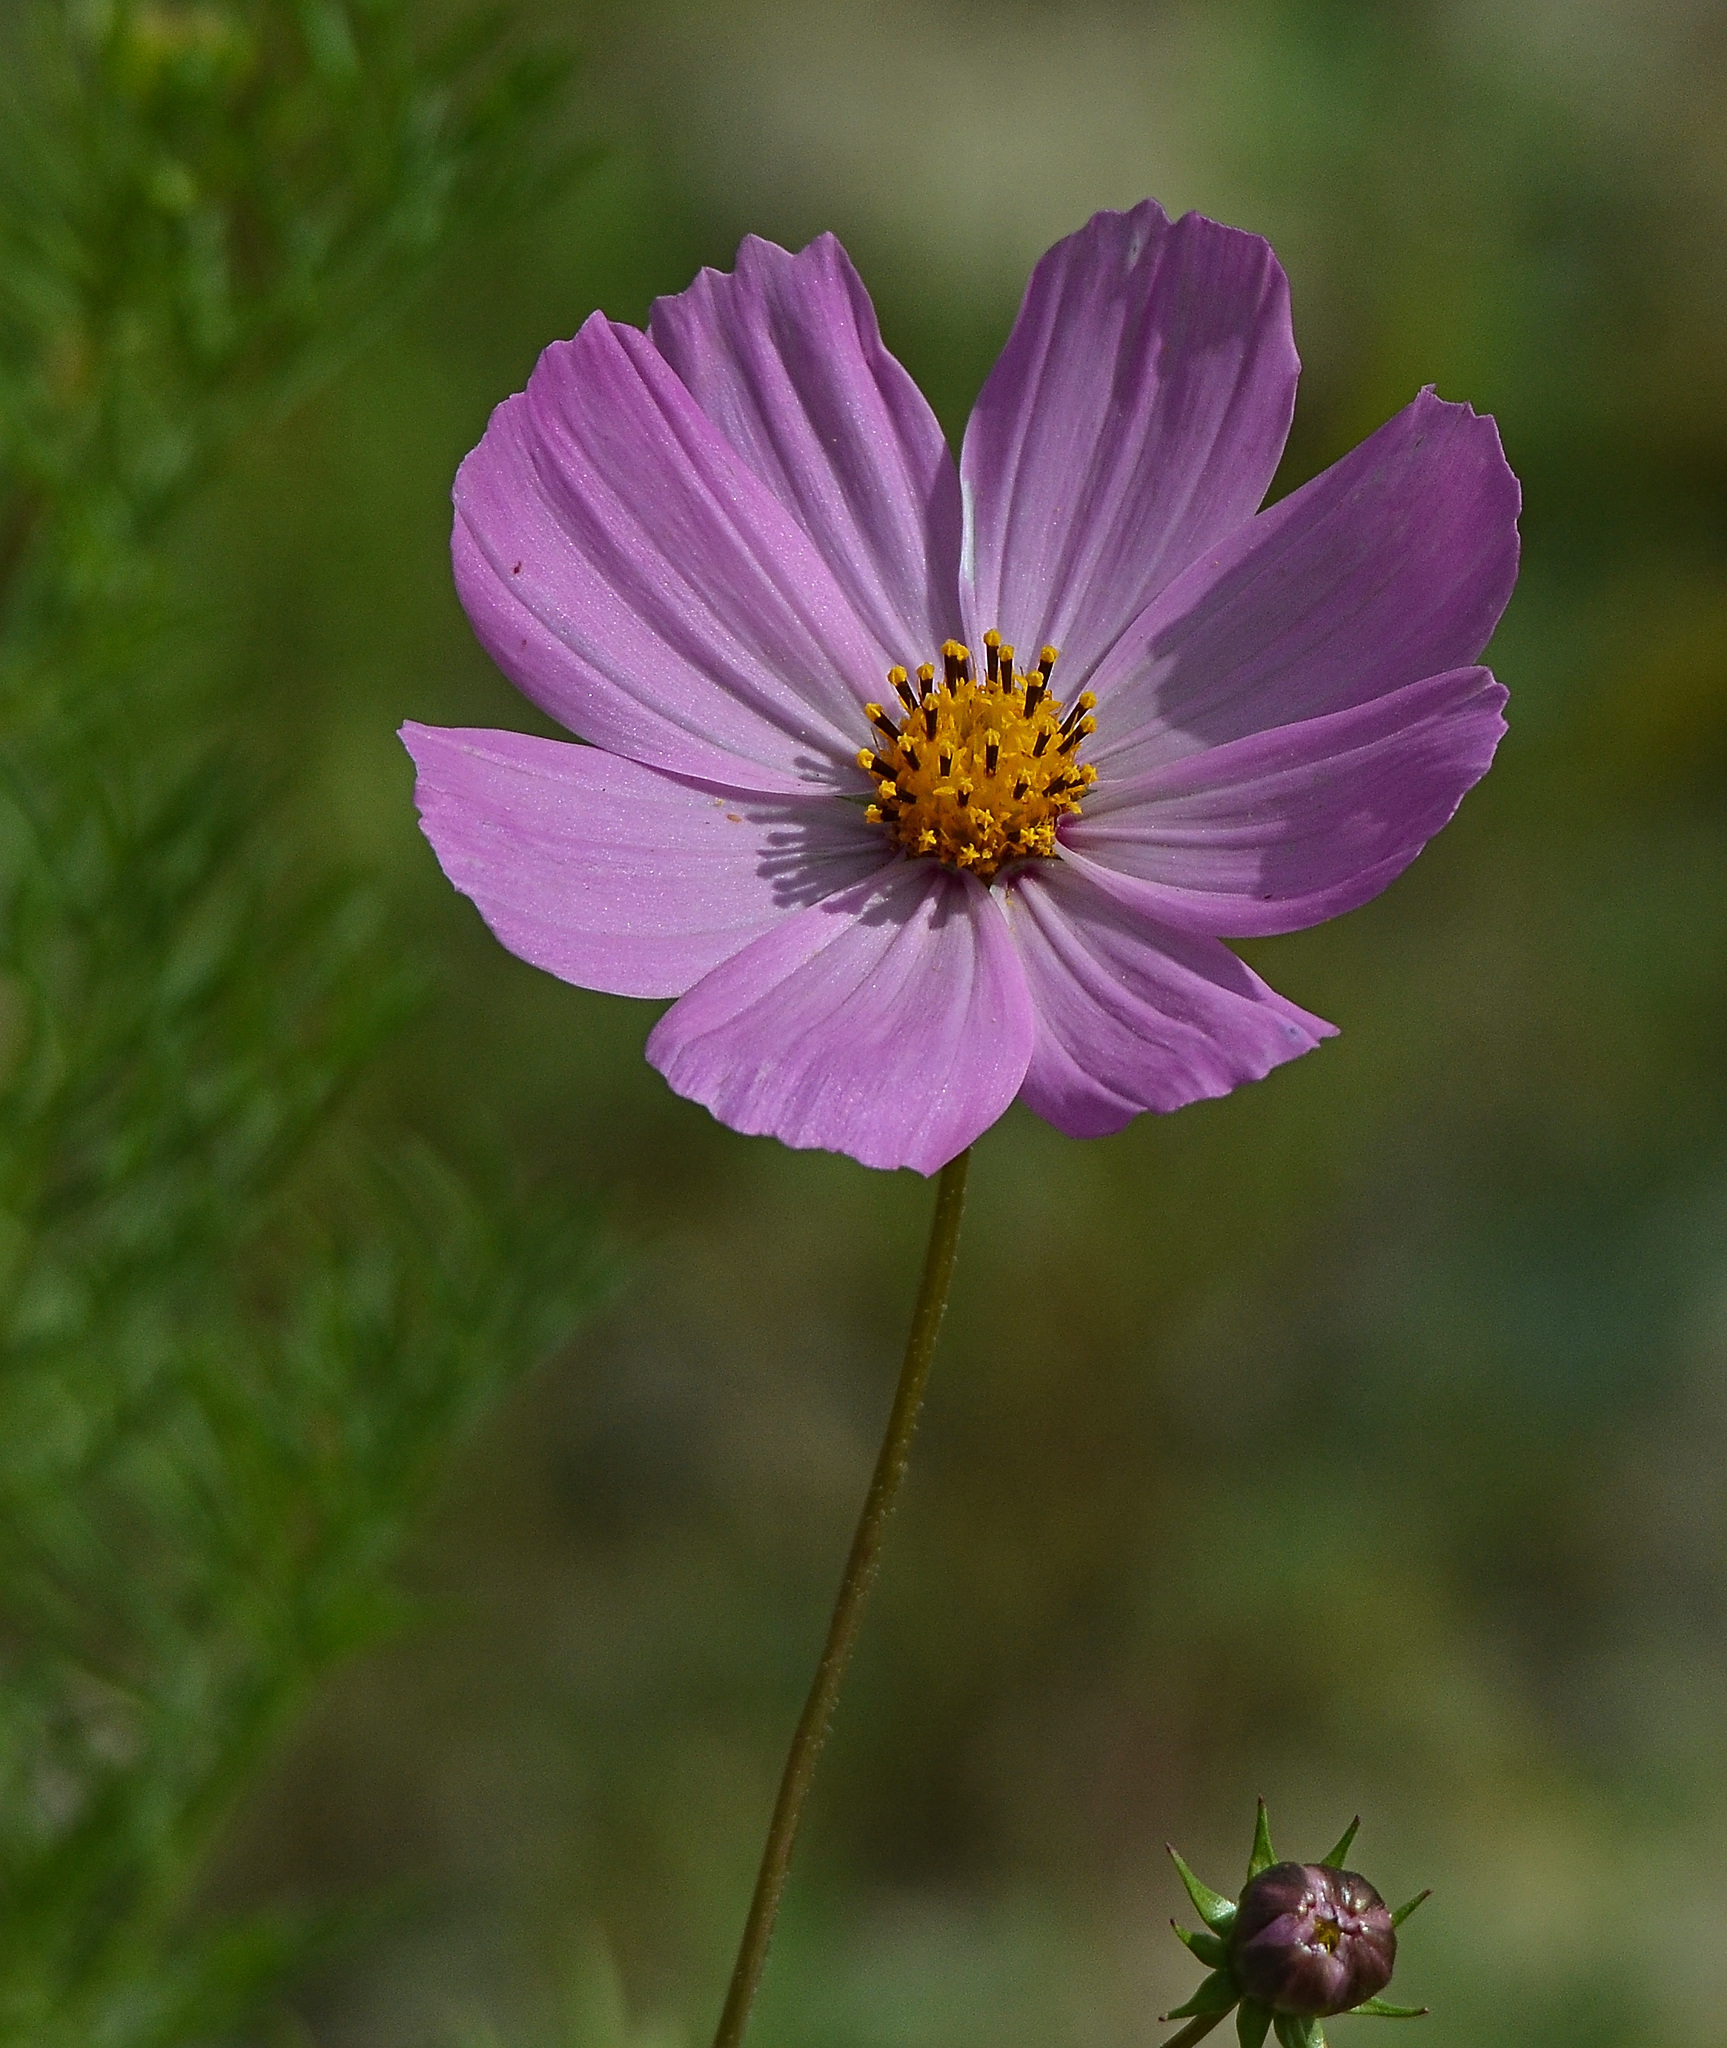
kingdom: Plantae
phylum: Tracheophyta
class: Magnoliopsida
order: Asterales
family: Asteraceae
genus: Cosmos
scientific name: Cosmos bipinnatus
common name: Garden cosmos
